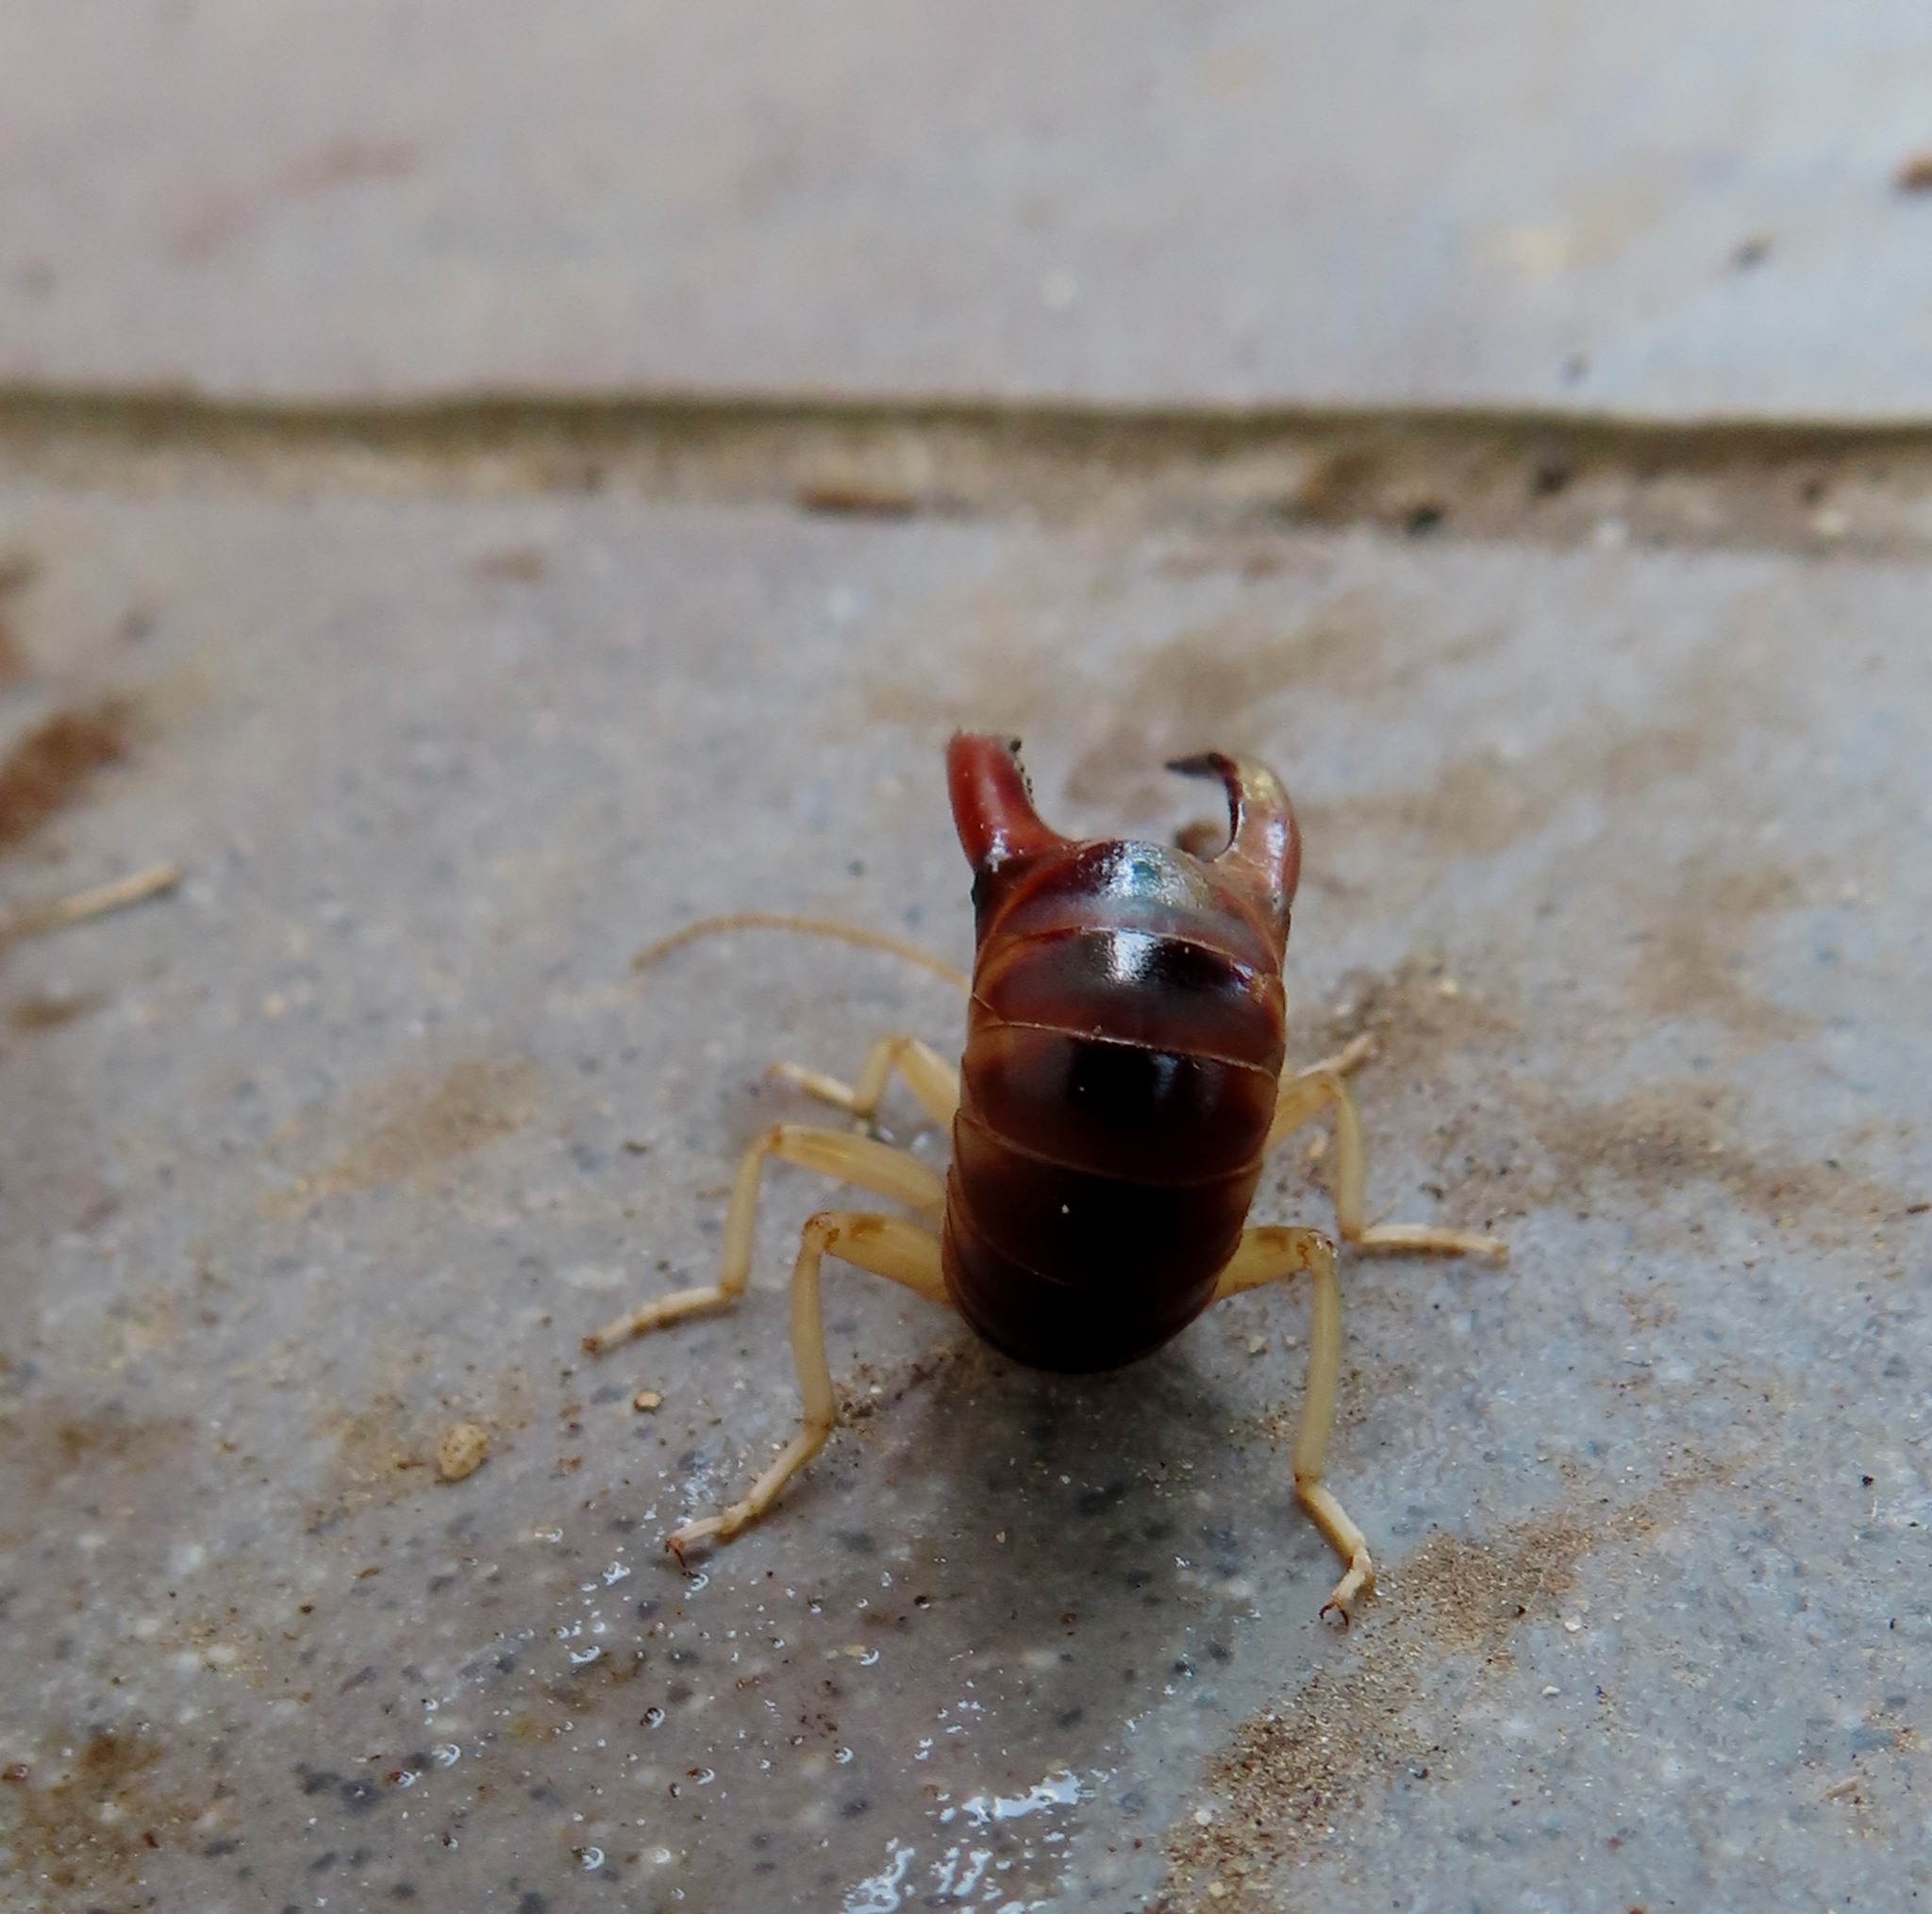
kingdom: Animalia
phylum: Arthropoda
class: Insecta
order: Dermaptera
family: Labiduridae
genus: Labidura
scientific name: Labidura riparia
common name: Striped earwig
